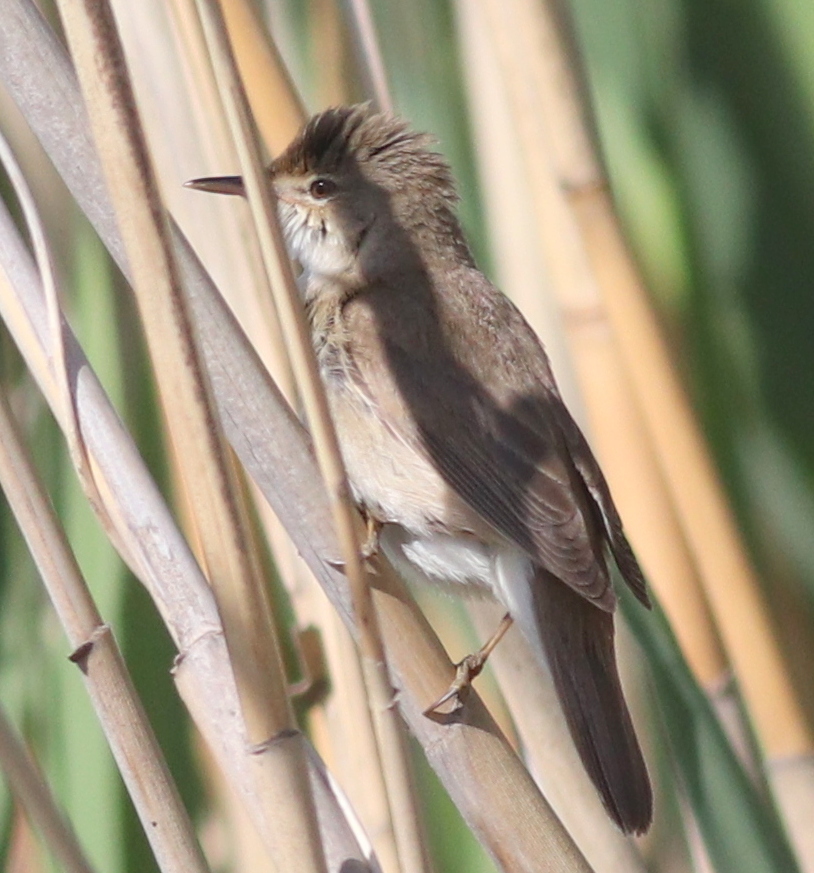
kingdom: Animalia
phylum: Chordata
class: Aves
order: Passeriformes
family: Acrocephalidae
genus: Acrocephalus
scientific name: Acrocephalus scirpaceus
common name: Eurasian reed warbler
